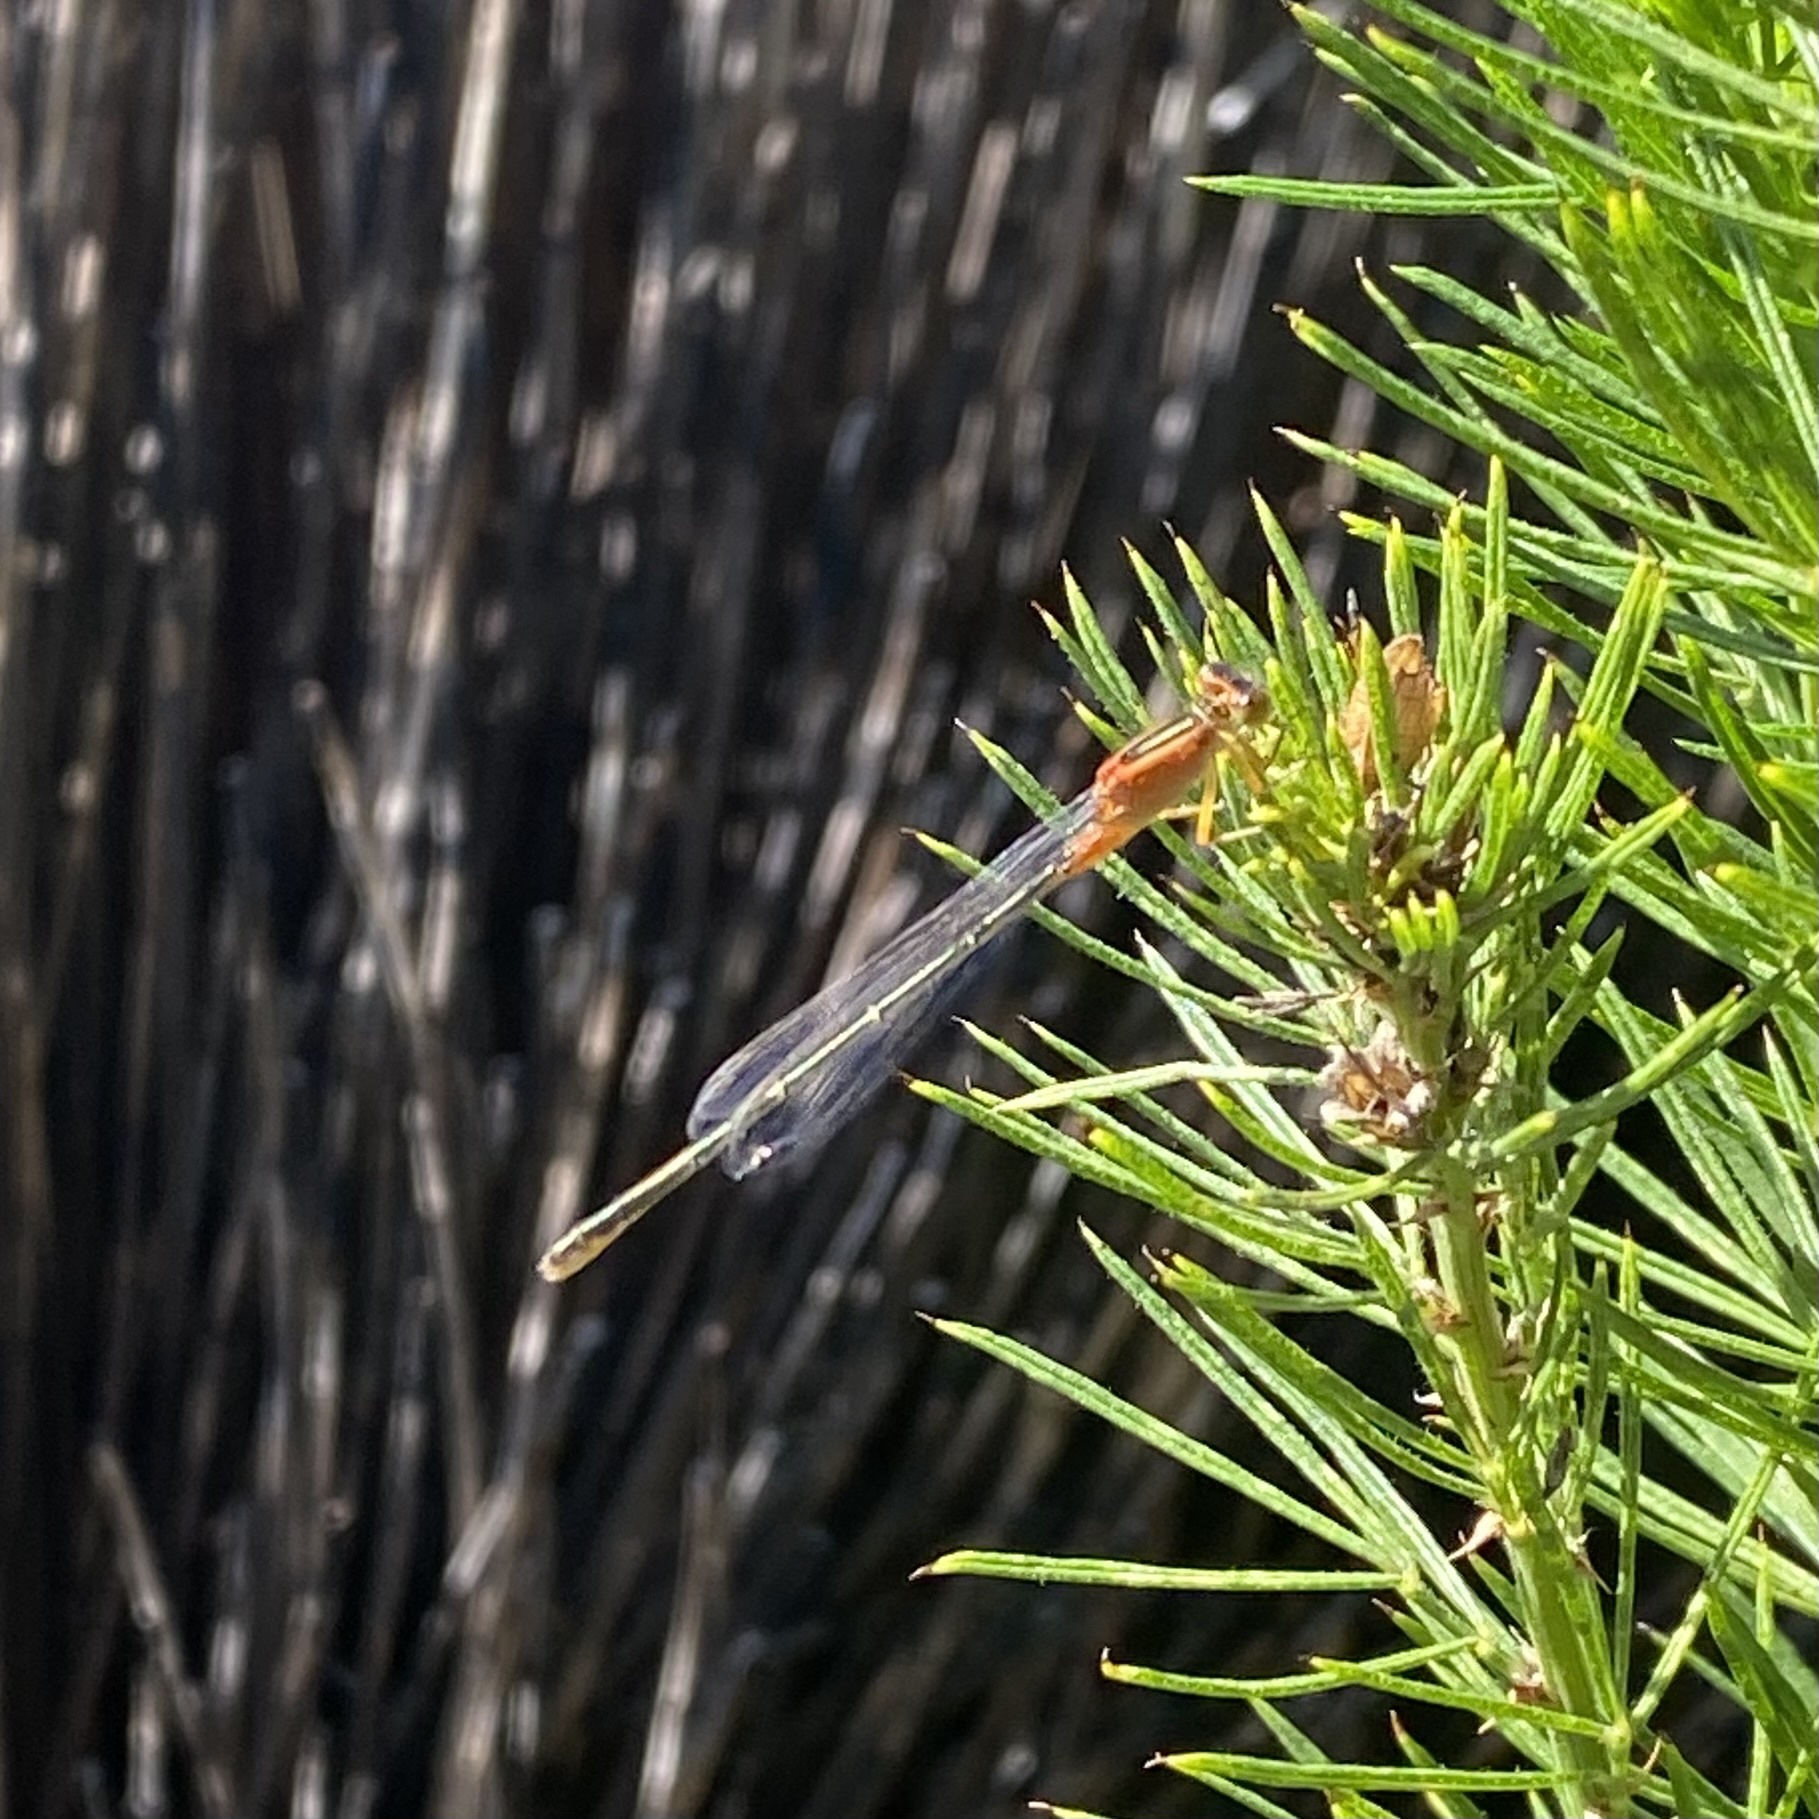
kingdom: Animalia
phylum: Arthropoda
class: Insecta
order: Odonata
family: Coenagrionidae
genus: Ischnura
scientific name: Ischnura senegalensis
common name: Tropical bluetail
